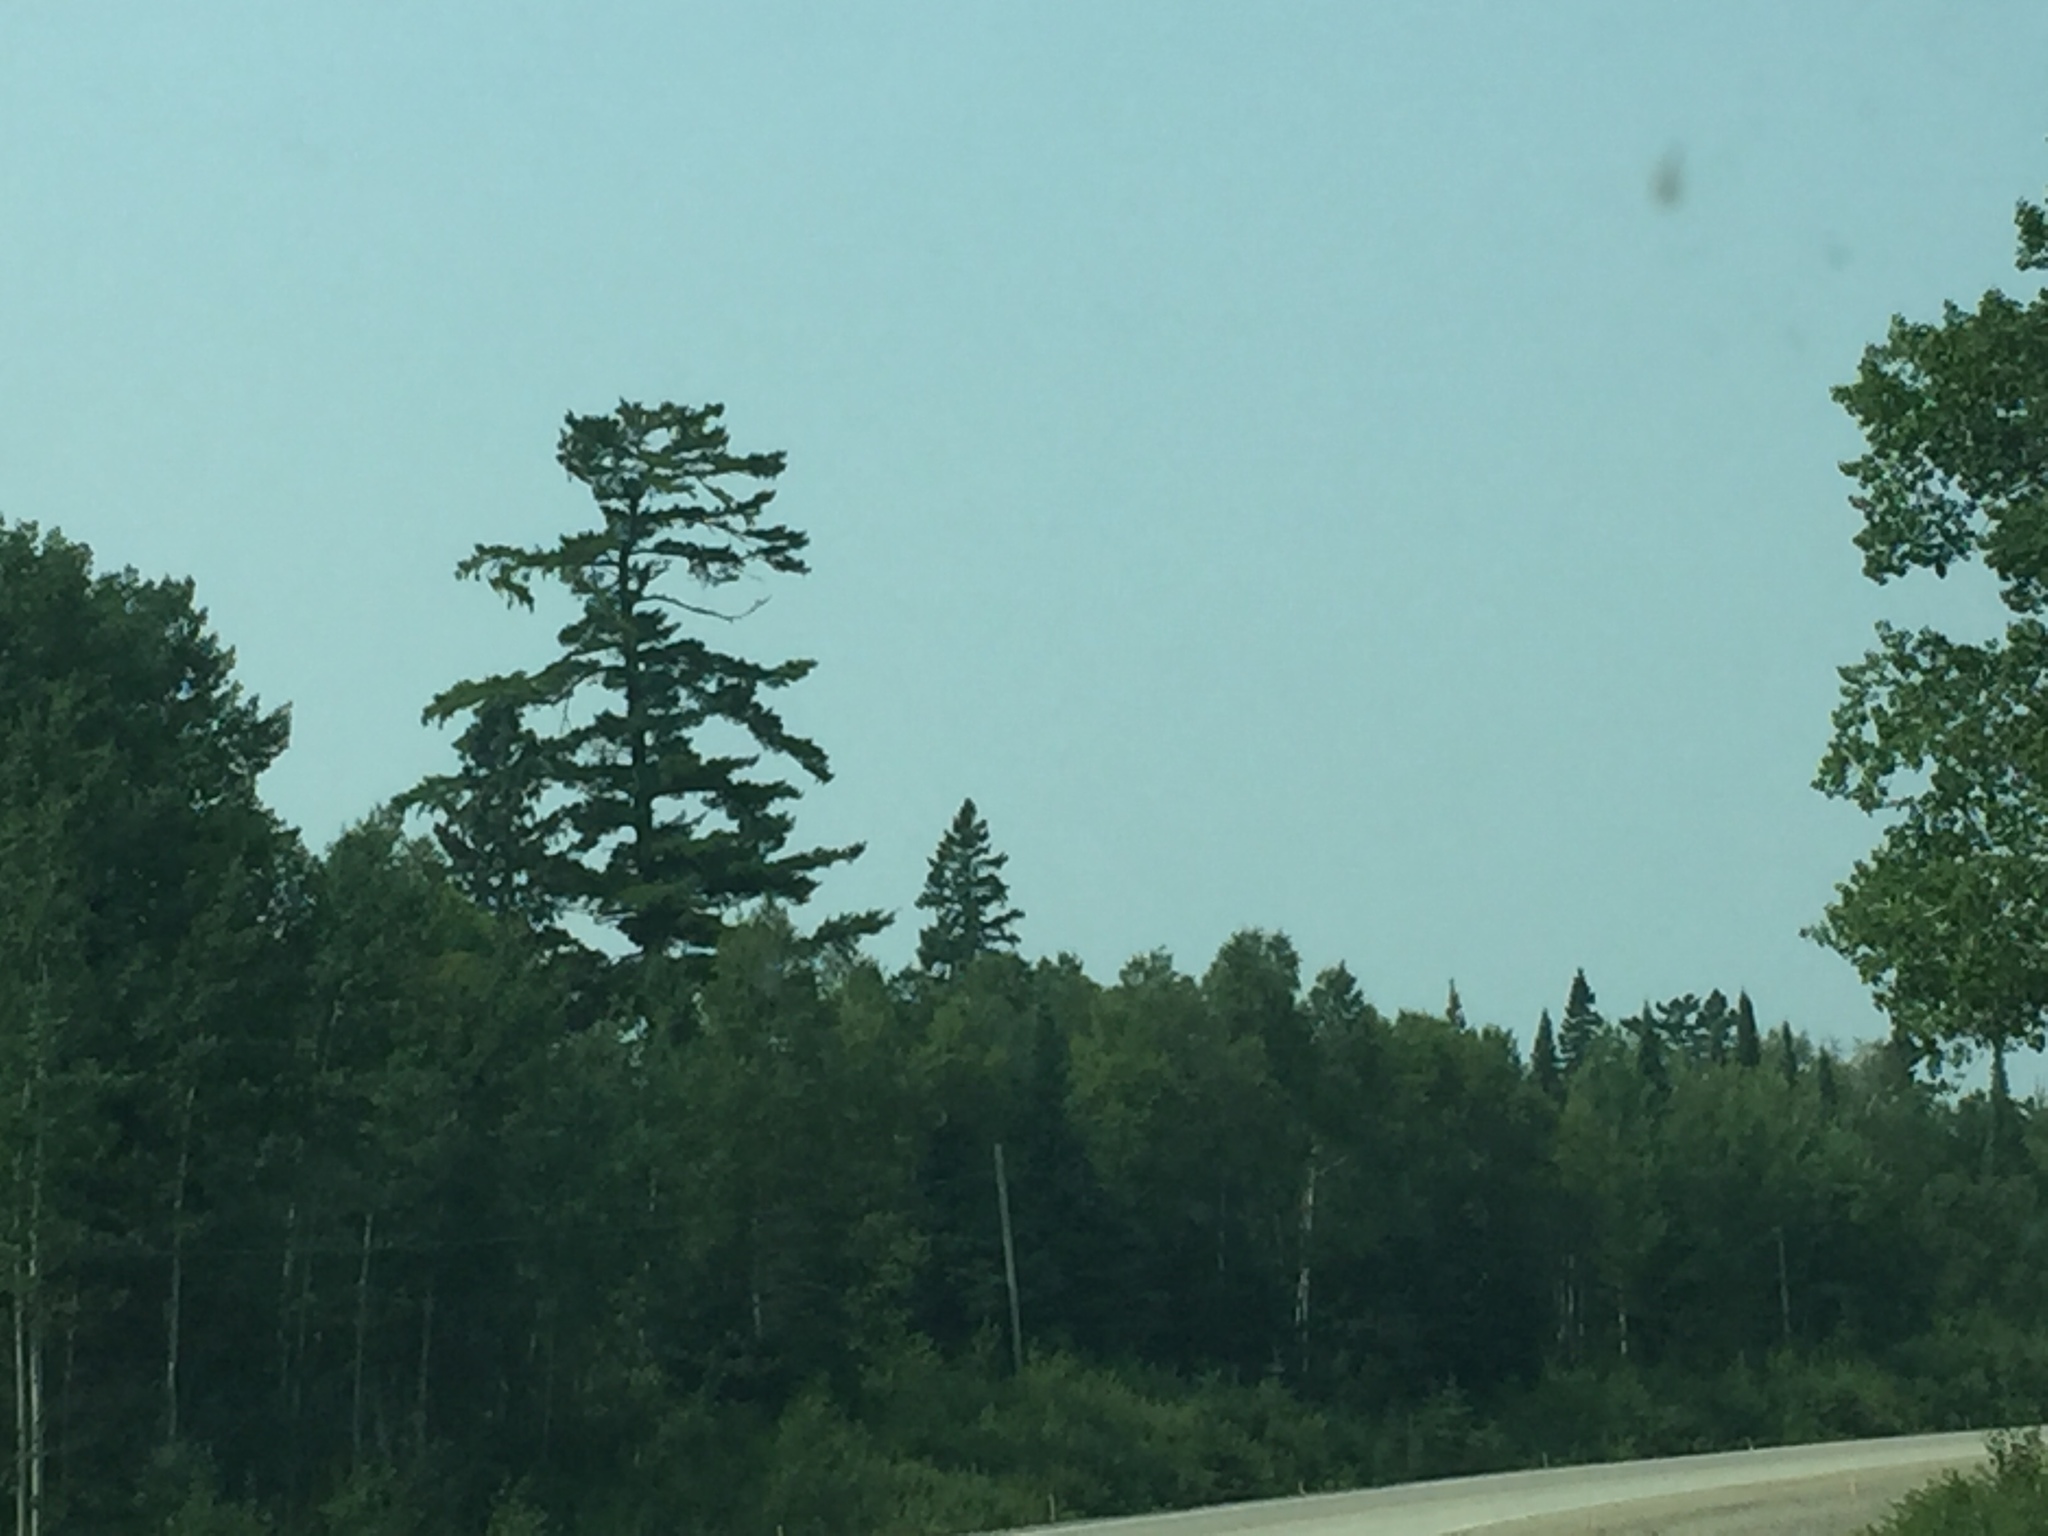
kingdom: Plantae
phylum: Tracheophyta
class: Pinopsida
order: Pinales
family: Pinaceae
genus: Pinus
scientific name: Pinus strobus
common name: Weymouth pine
